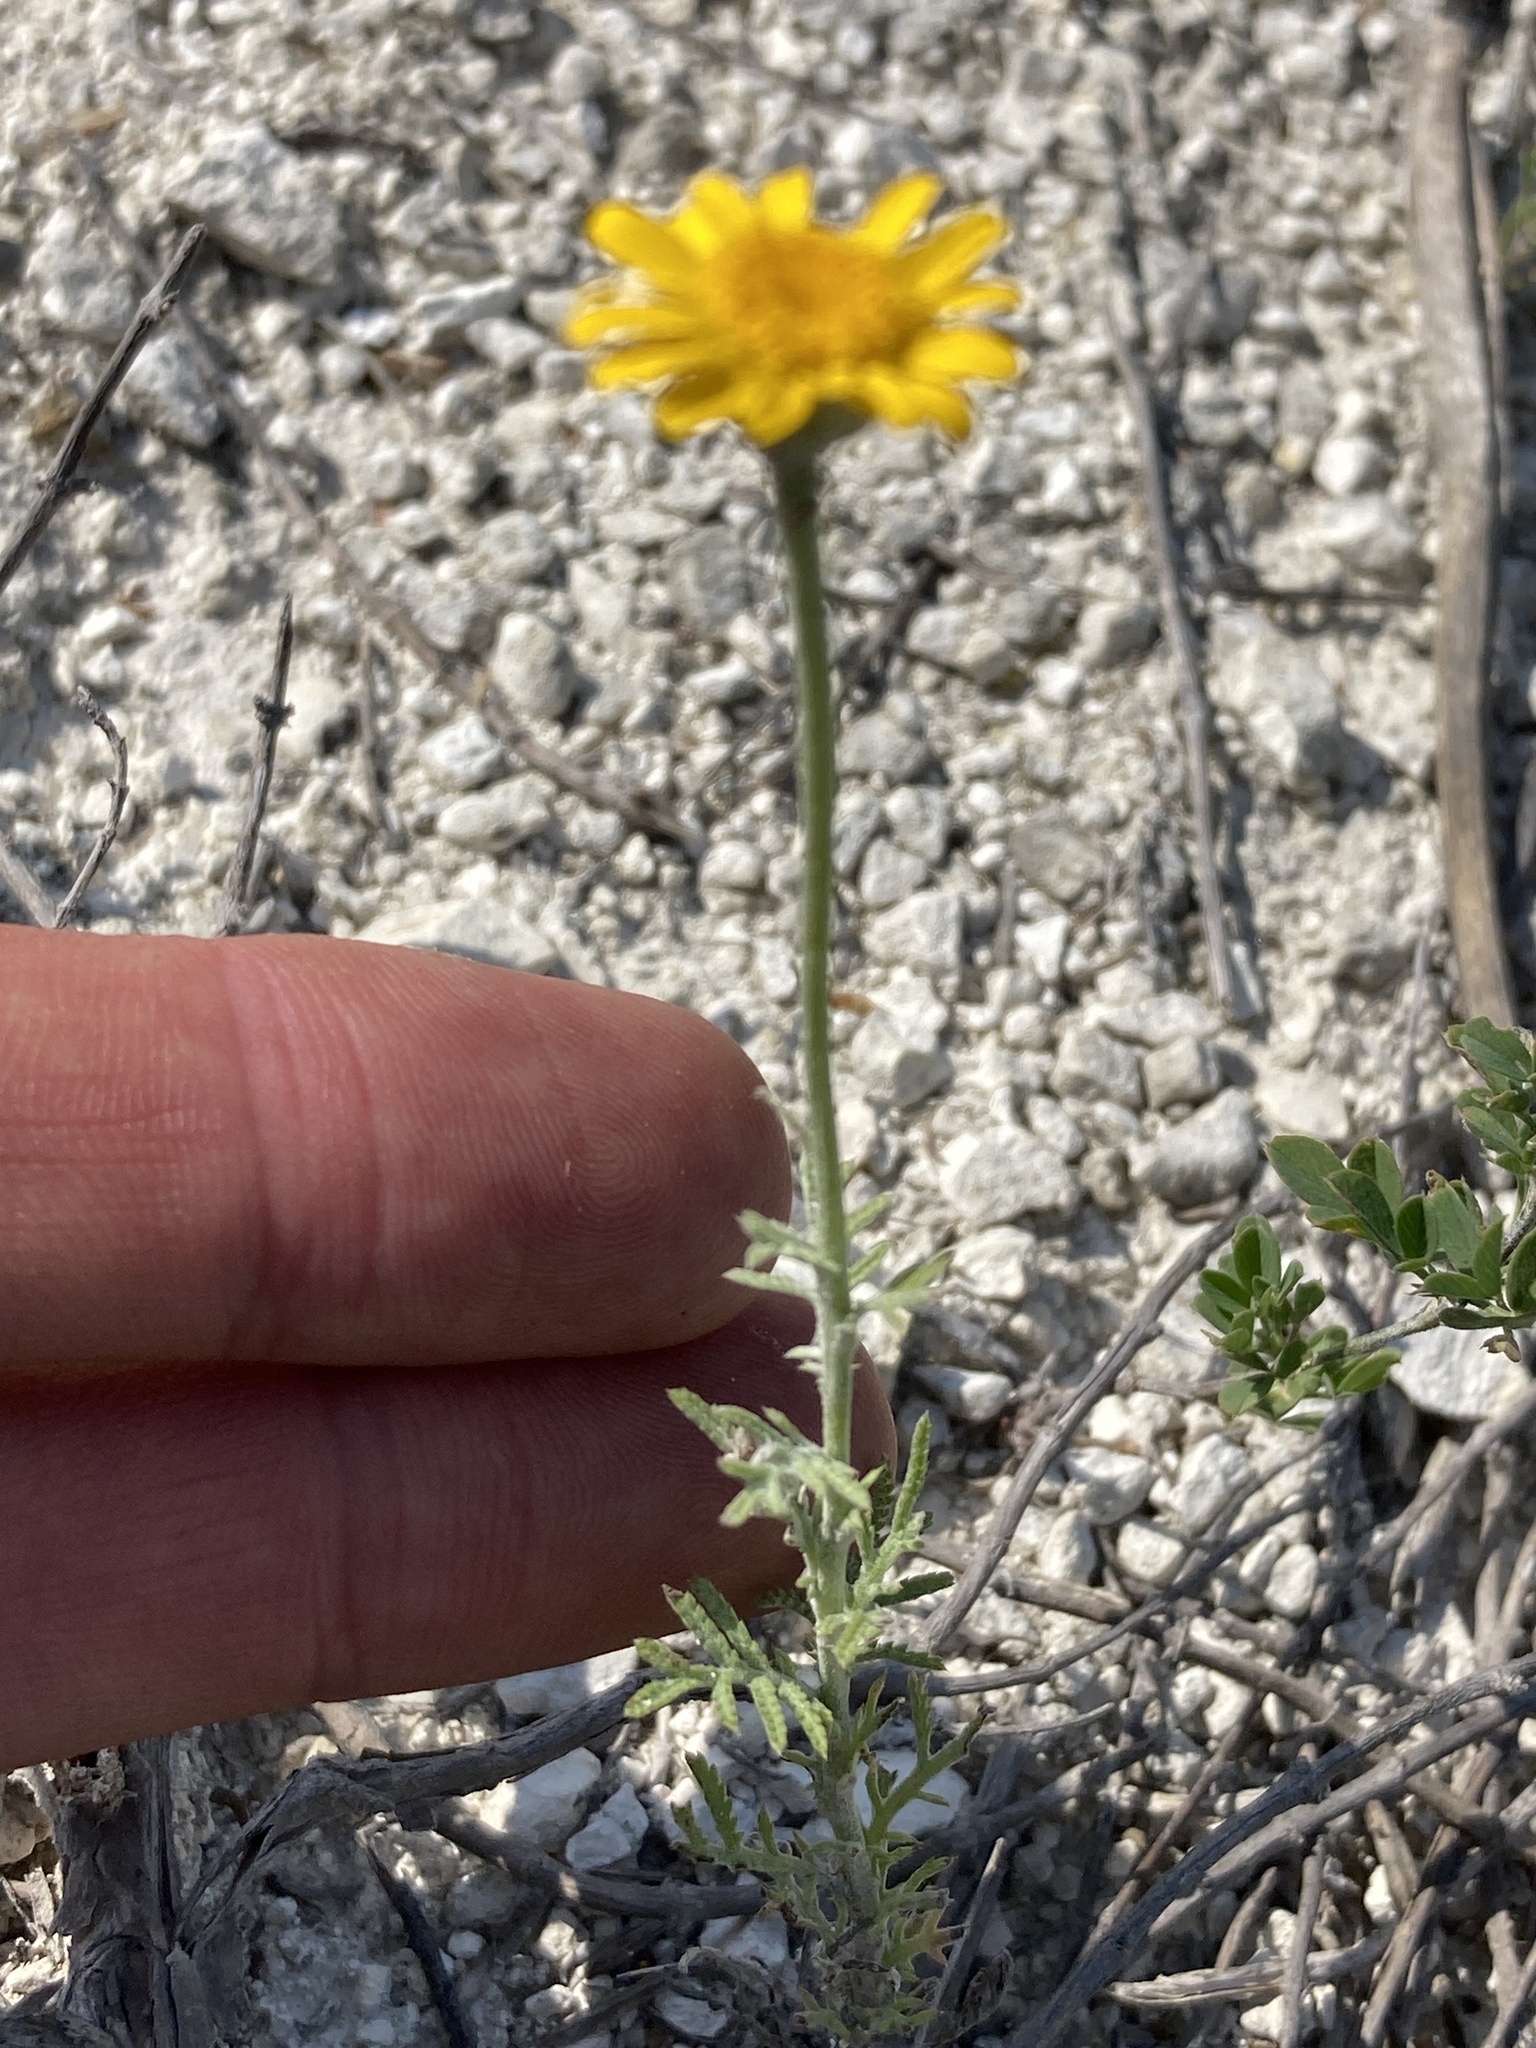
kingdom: Plantae
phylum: Tracheophyta
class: Magnoliopsida
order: Asterales
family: Asteraceae
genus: Cota
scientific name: Cota tinctoria
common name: Golden chamomile
